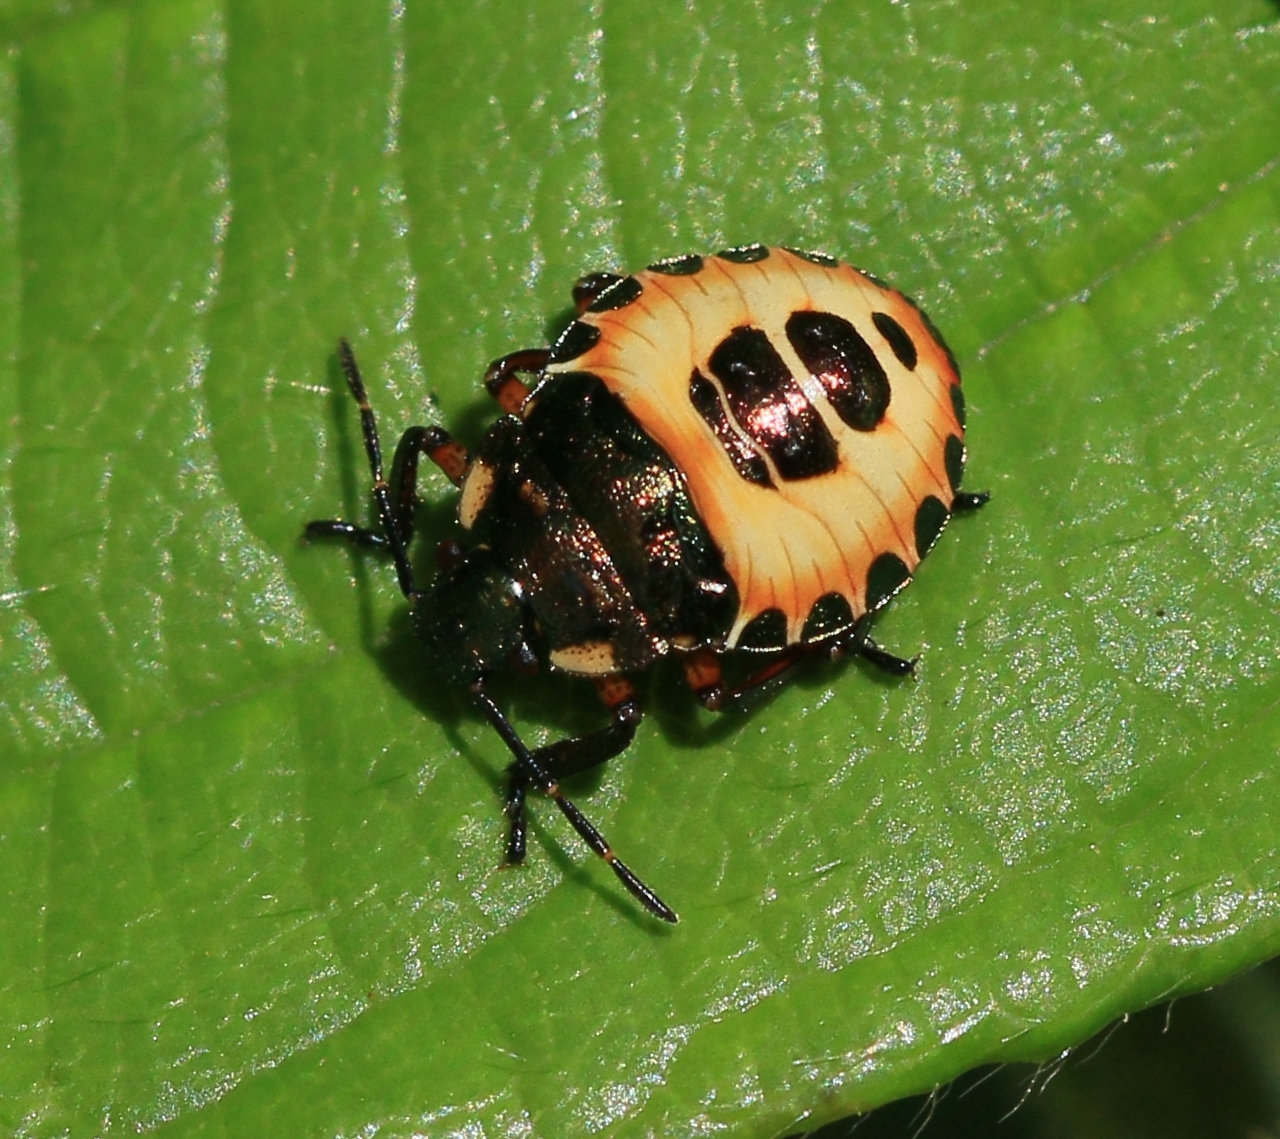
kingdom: Animalia
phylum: Arthropoda
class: Insecta
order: Hemiptera
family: Pentatomidae
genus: Troilus
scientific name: Troilus luridus
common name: Bronze shieldbug
